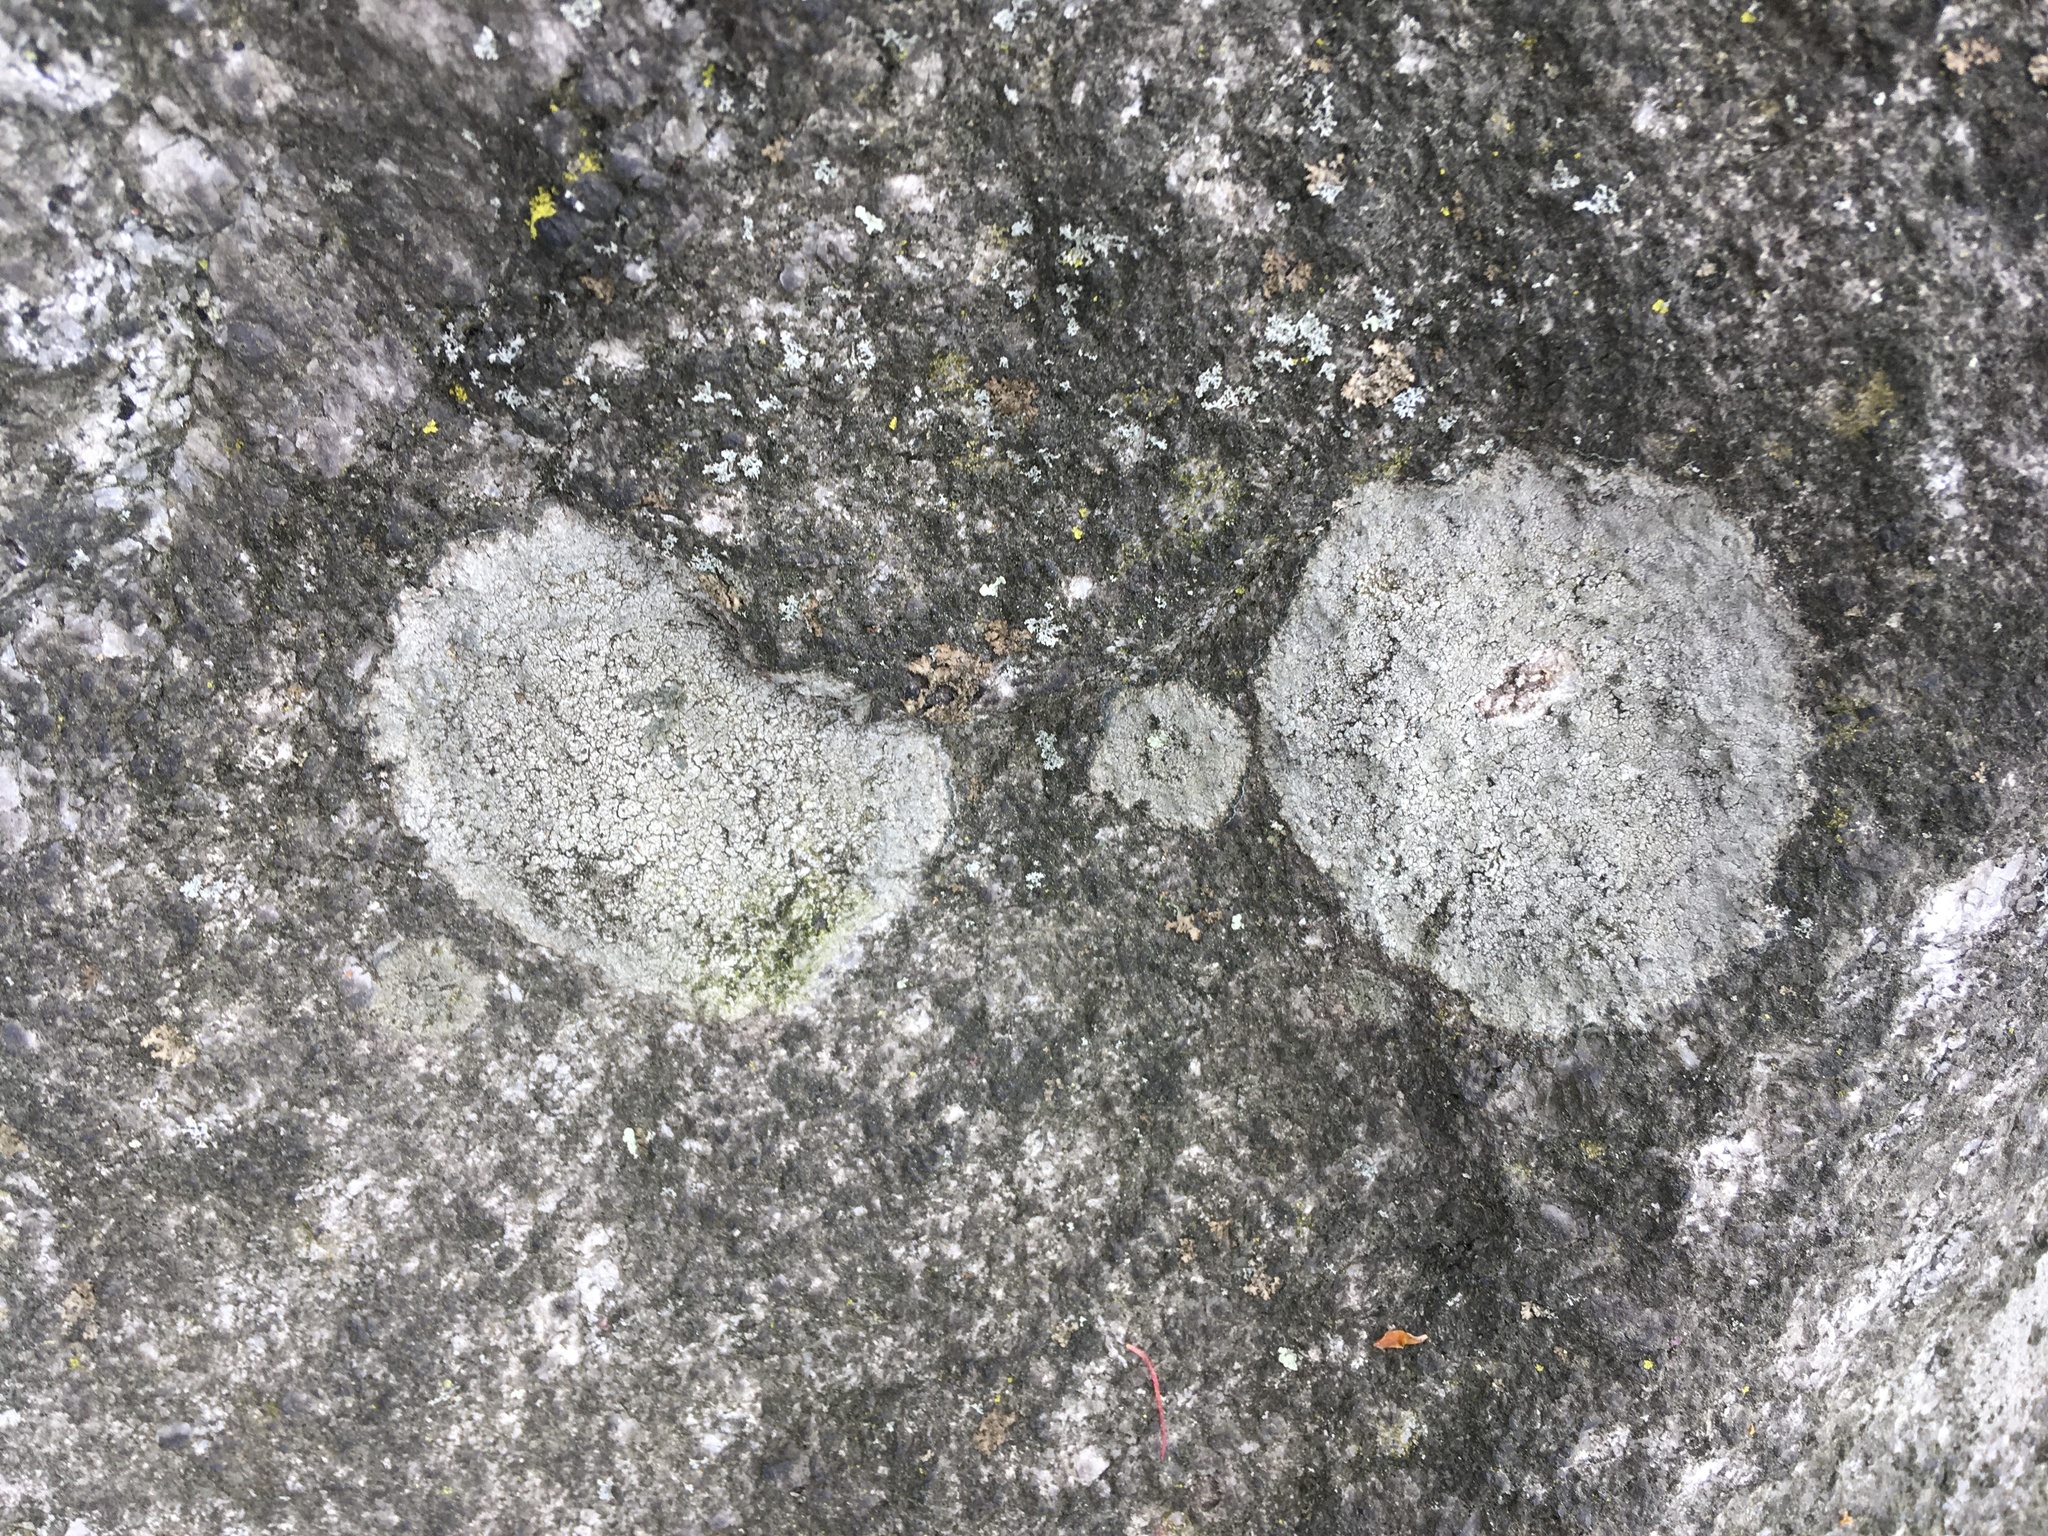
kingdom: Fungi
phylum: Ascomycota
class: Lecanoromycetes
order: Lecideales
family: Lecideaceae
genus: Porpidia
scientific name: Porpidia albocaerulescens
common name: Smokey-eyed boulder lichen
